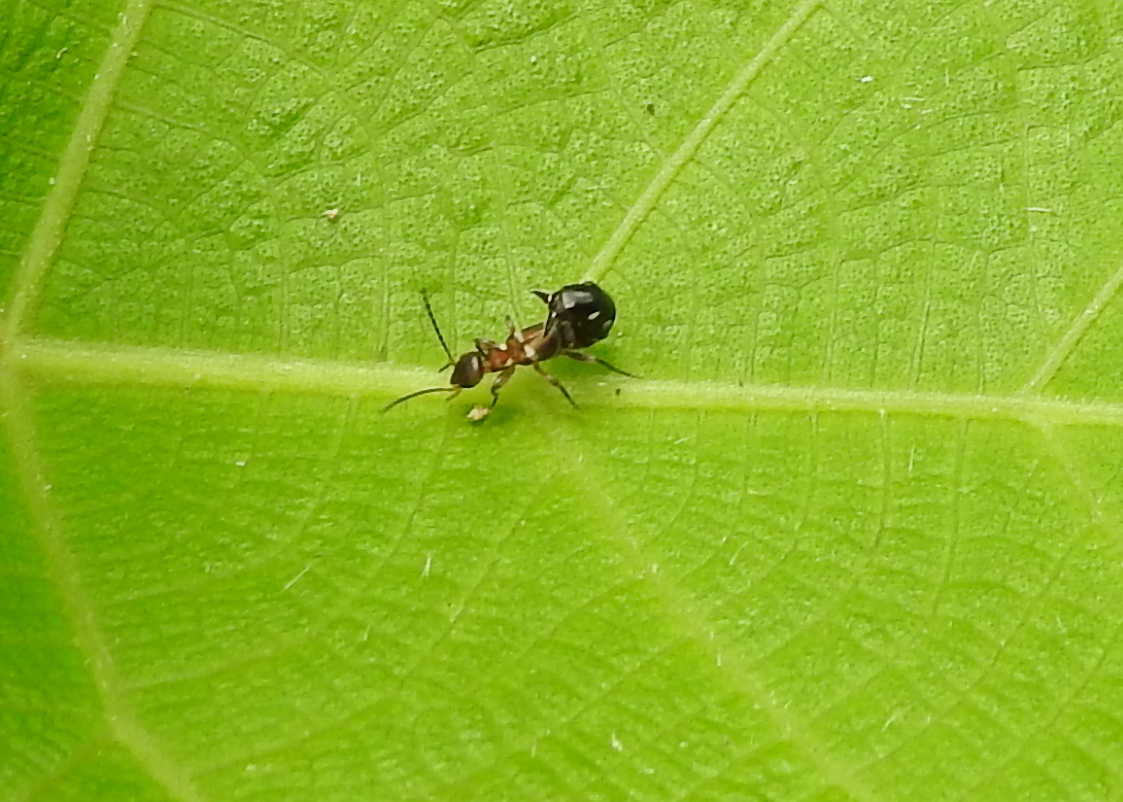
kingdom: Animalia
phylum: Arthropoda
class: Insecta
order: Dermaptera
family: Spongiphoridae
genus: Pseudovostox
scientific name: Pseudovostox
